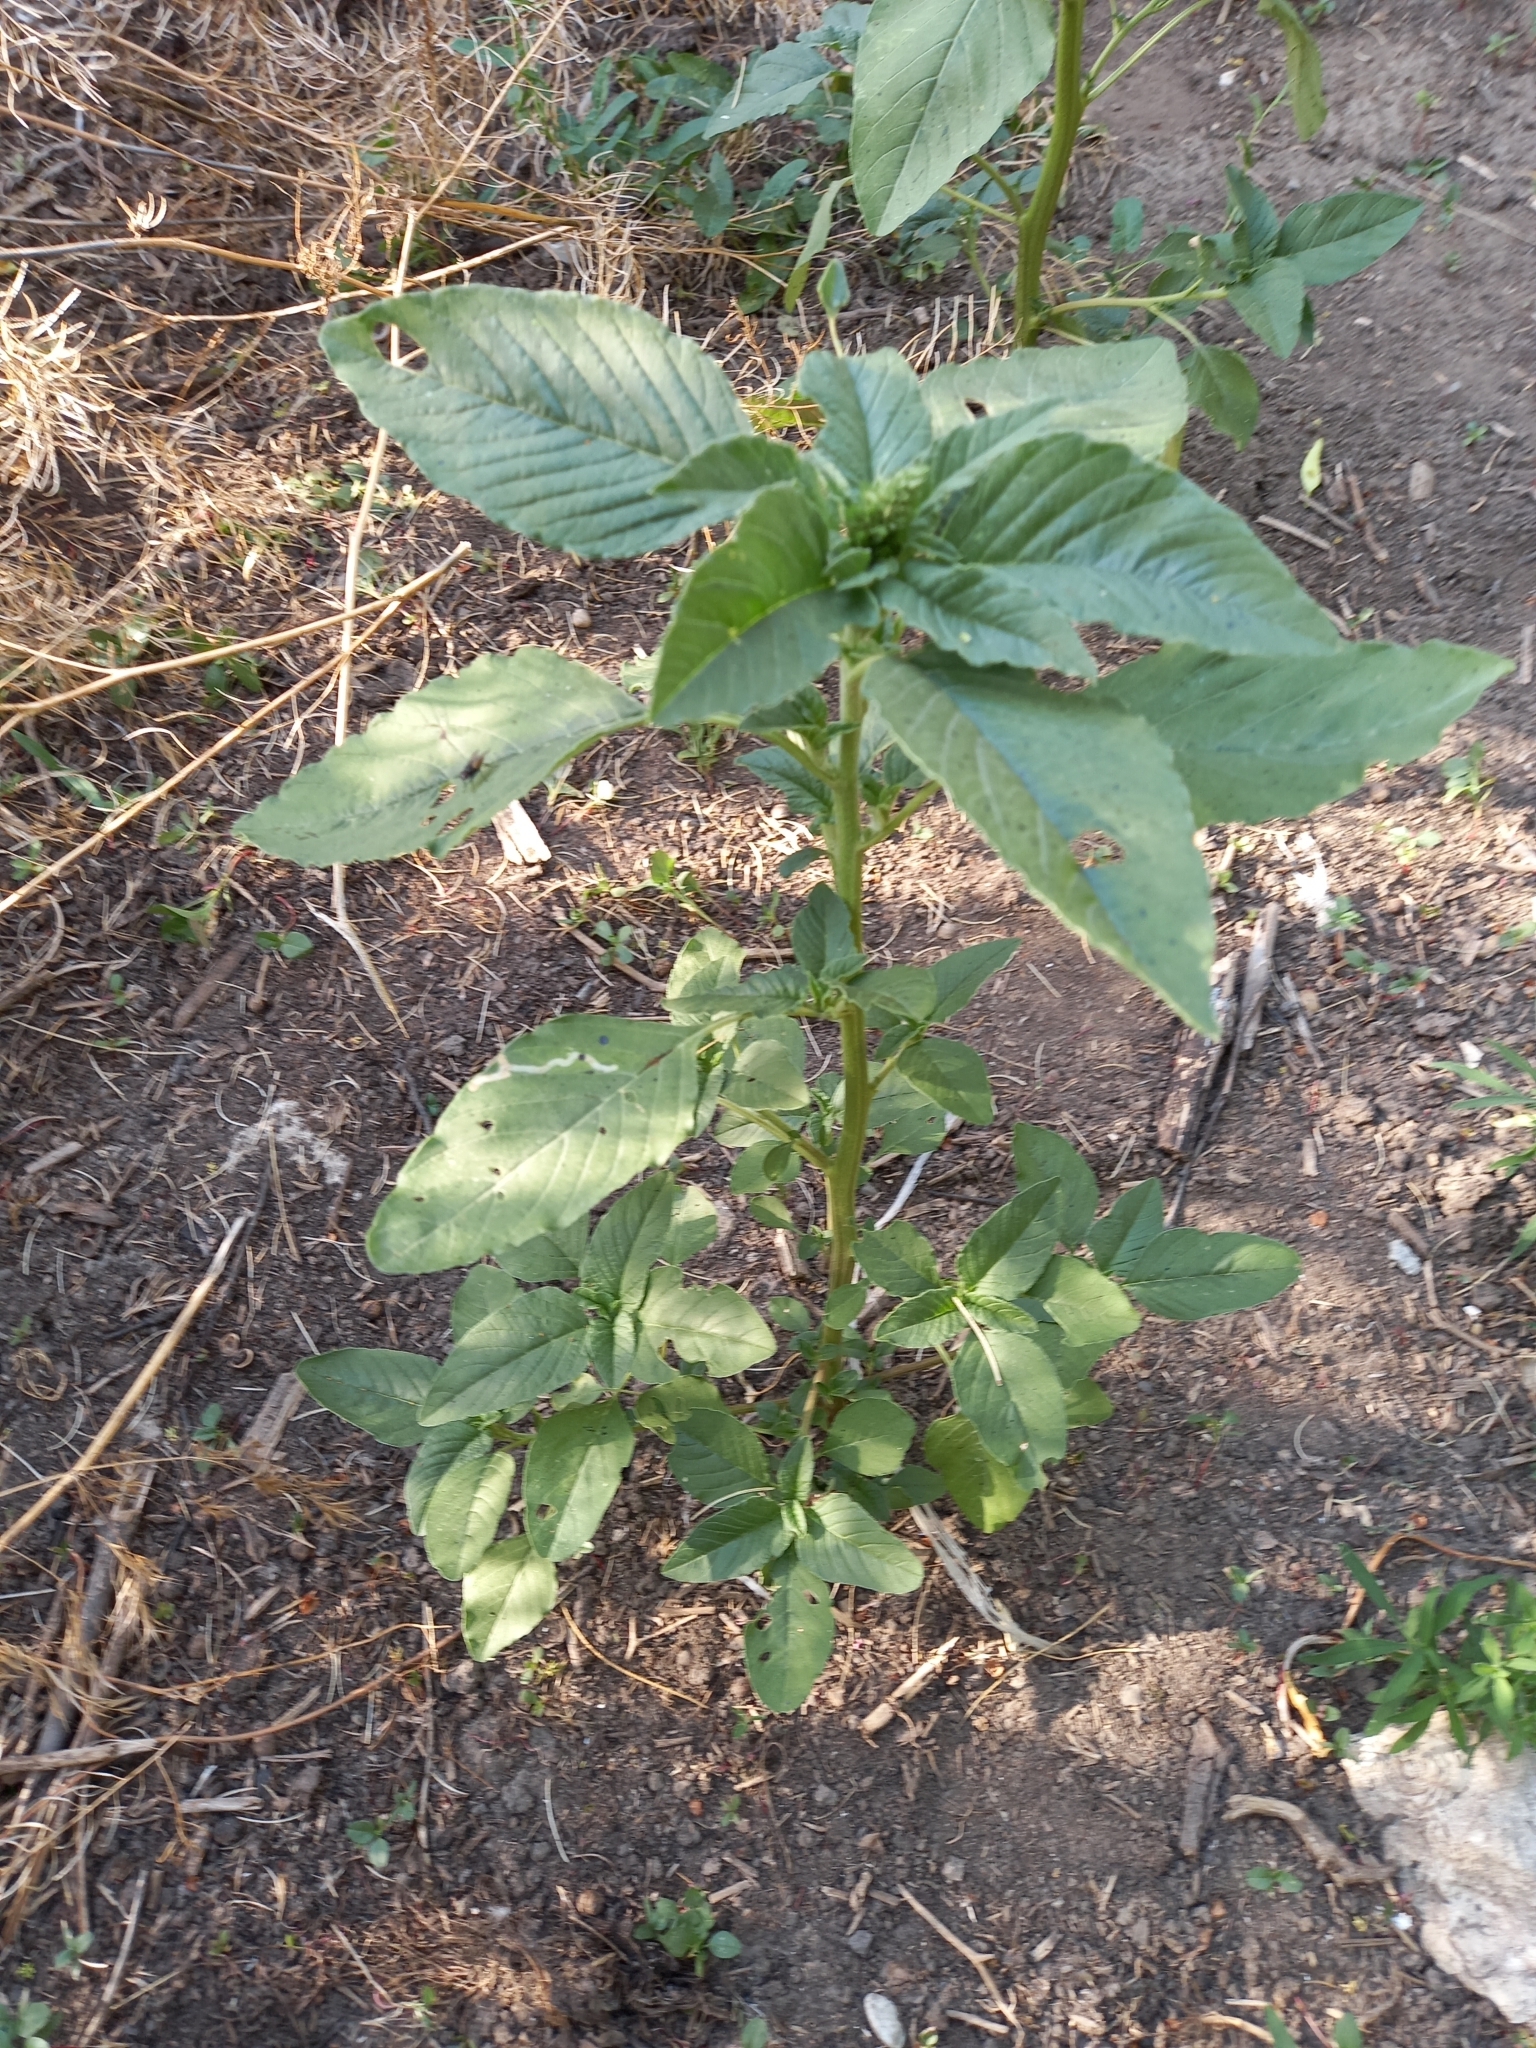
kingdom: Plantae
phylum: Tracheophyta
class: Magnoliopsida
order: Caryophyllales
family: Amaranthaceae
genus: Amaranthus
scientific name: Amaranthus retroflexus
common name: Redroot amaranth
